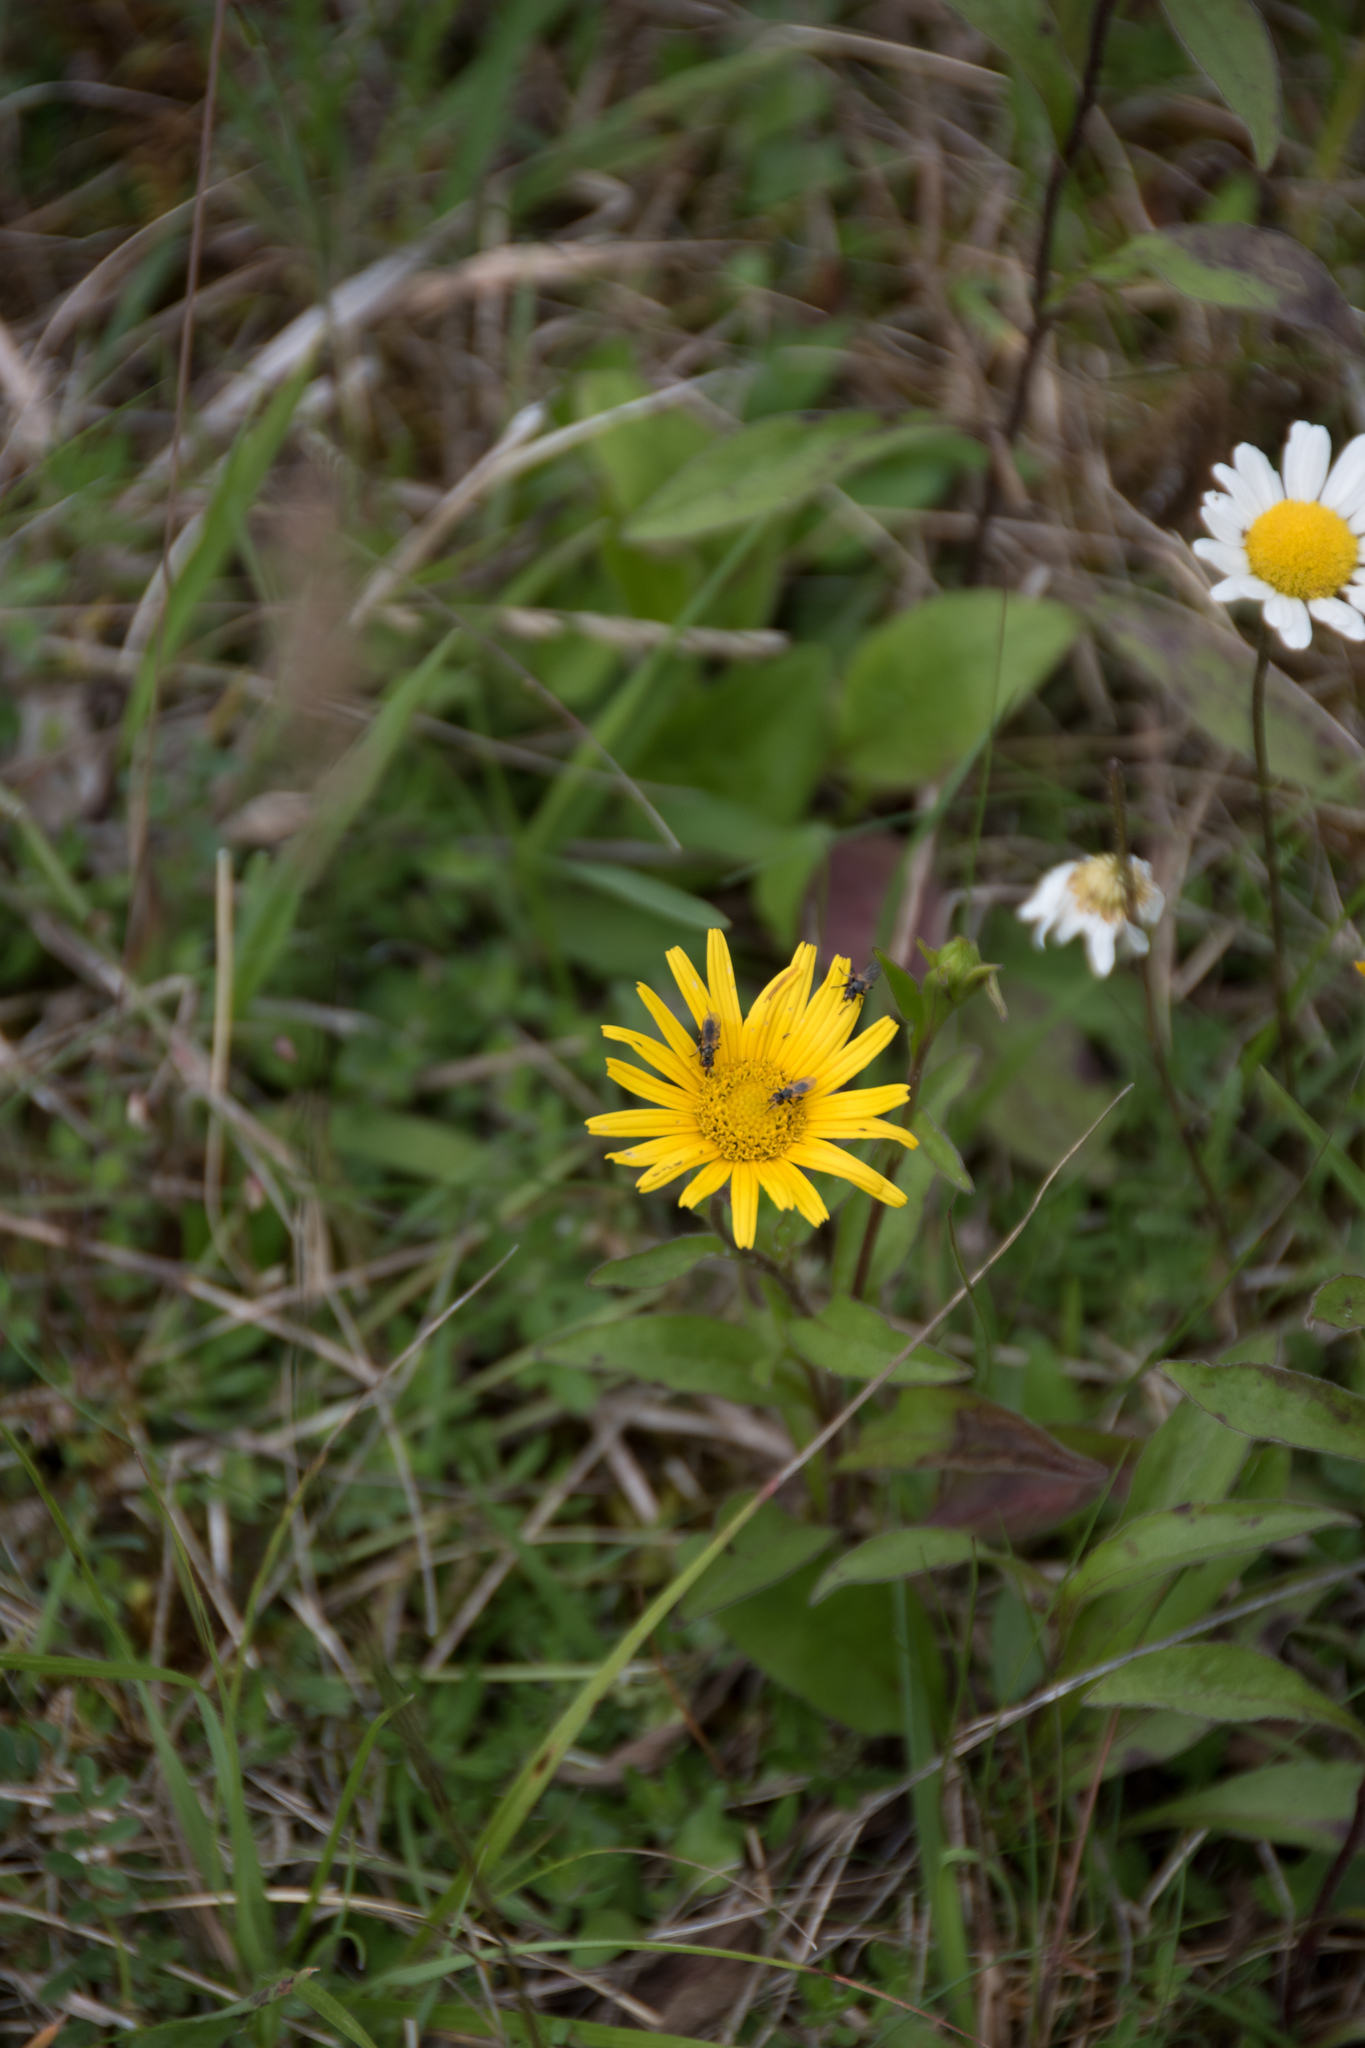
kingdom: Plantae
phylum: Tracheophyta
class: Magnoliopsida
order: Asterales
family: Asteraceae
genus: Buphthalmum
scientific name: Buphthalmum salicifolium
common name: Willow-leaved yellow-oxeye
